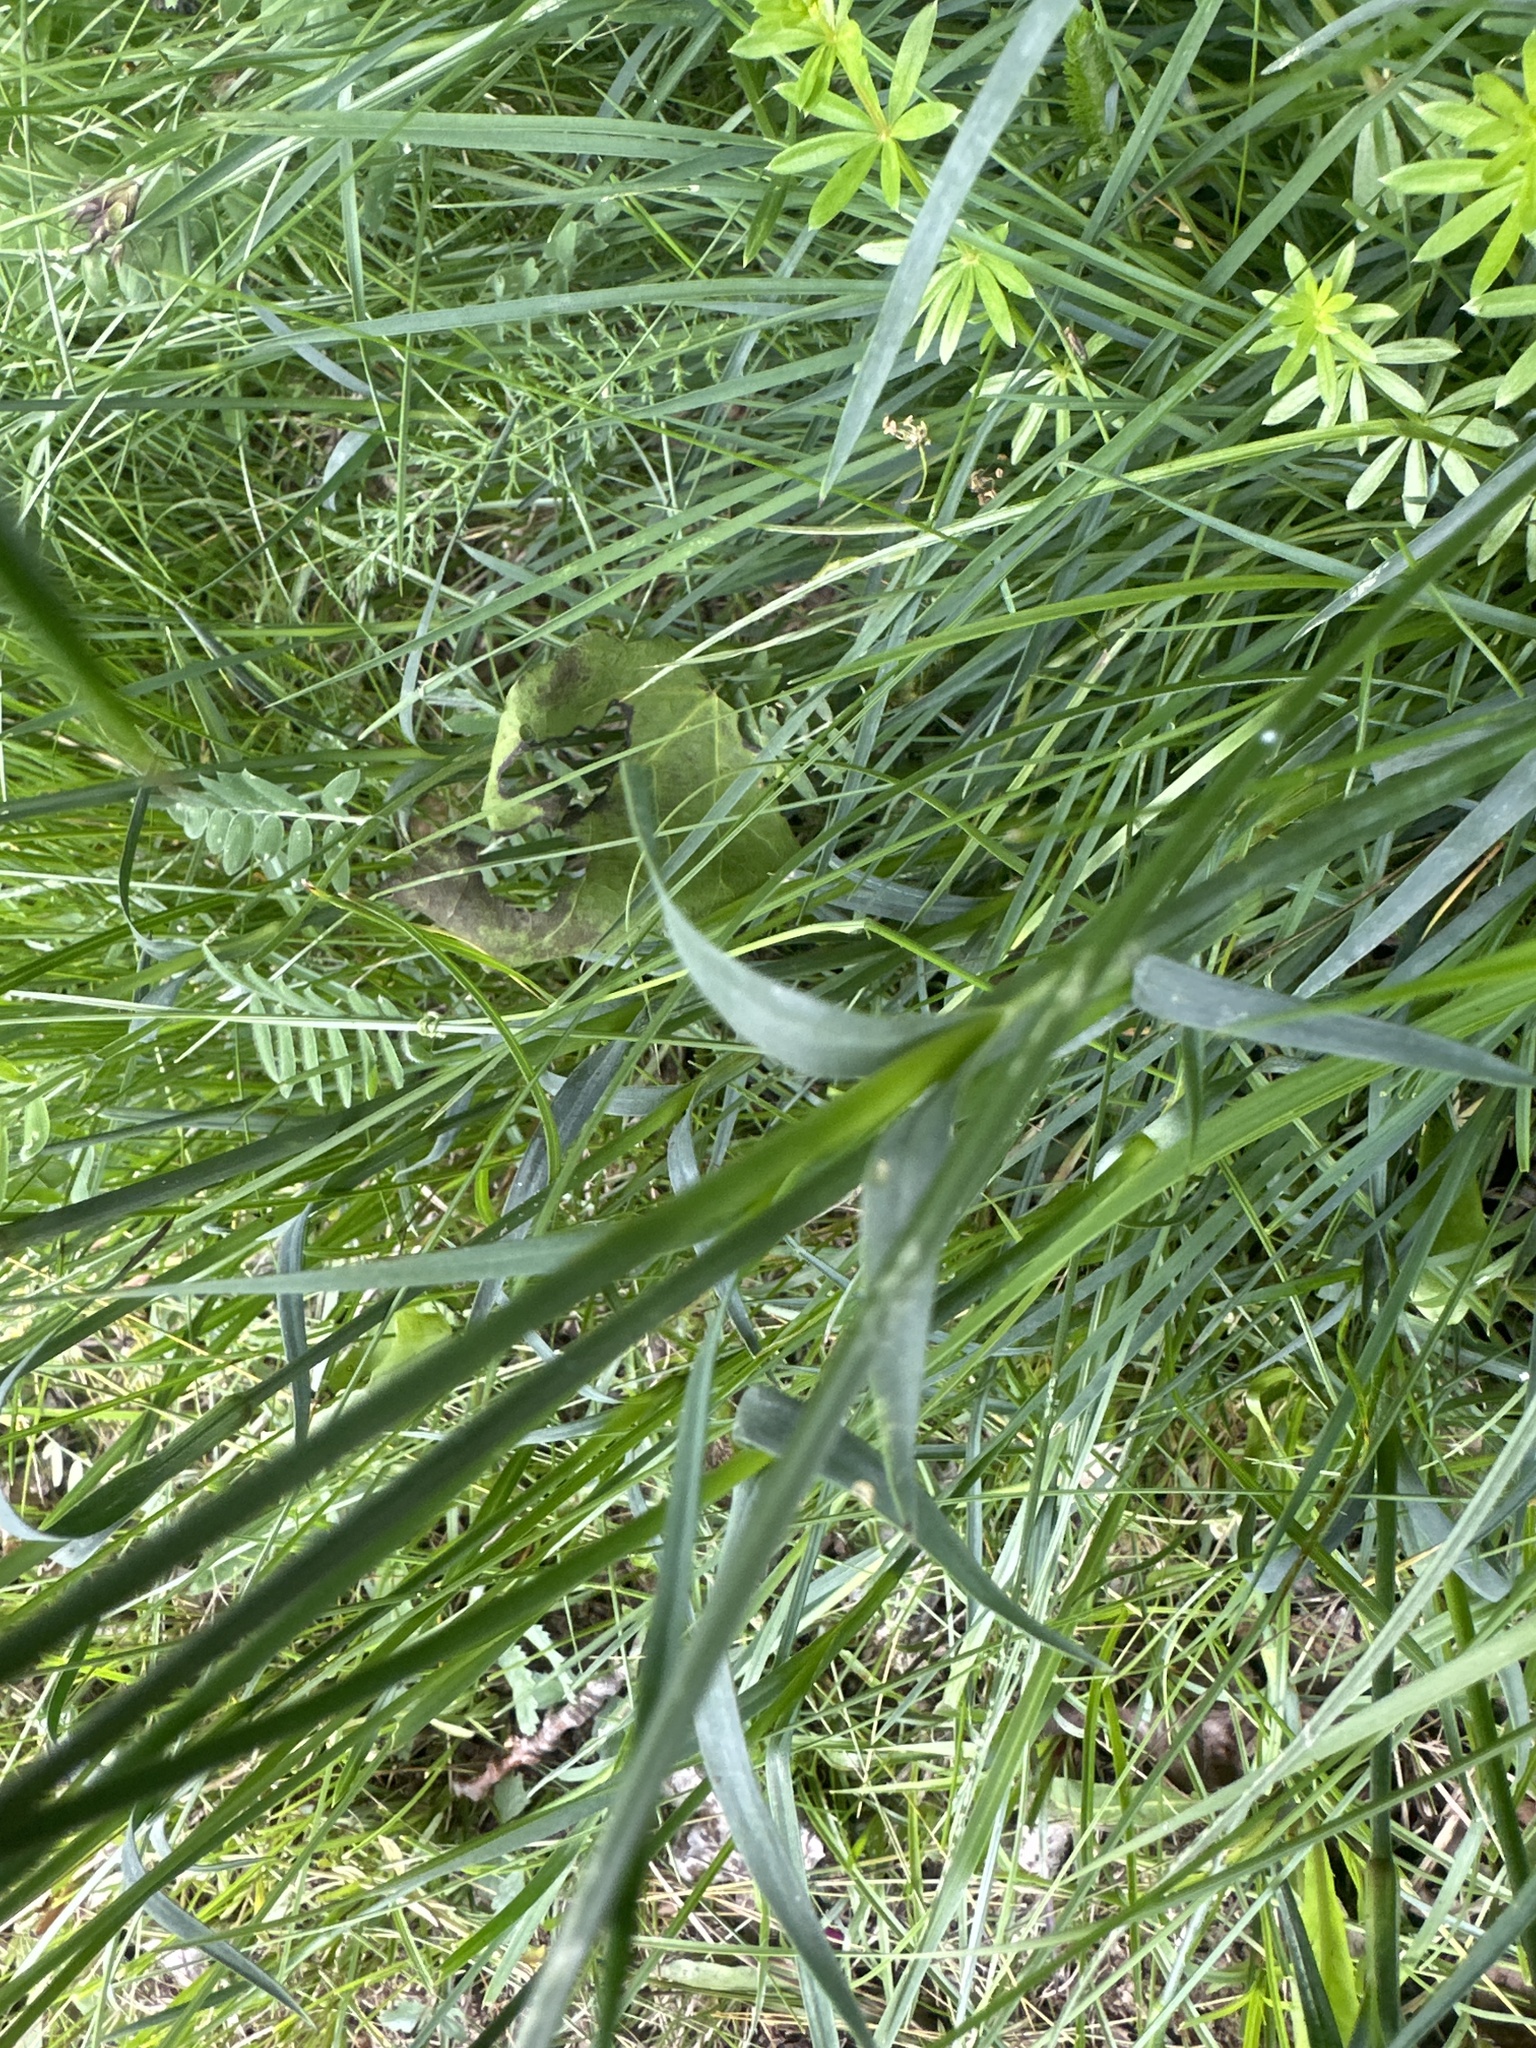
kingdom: Plantae
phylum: Tracheophyta
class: Magnoliopsida
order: Caryophyllales
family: Caryophyllaceae
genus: Dianthus
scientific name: Dianthus carthusianorum
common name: Carthusian pink
